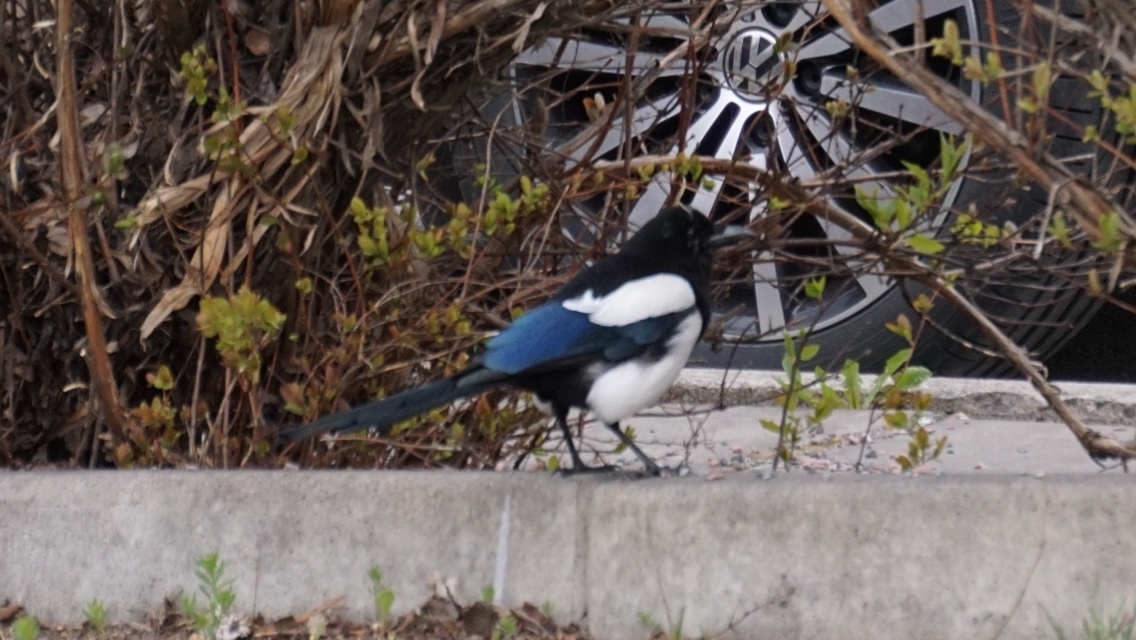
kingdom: Animalia
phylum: Chordata
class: Aves
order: Passeriformes
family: Corvidae
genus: Pica
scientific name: Pica pica
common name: Eurasian magpie
